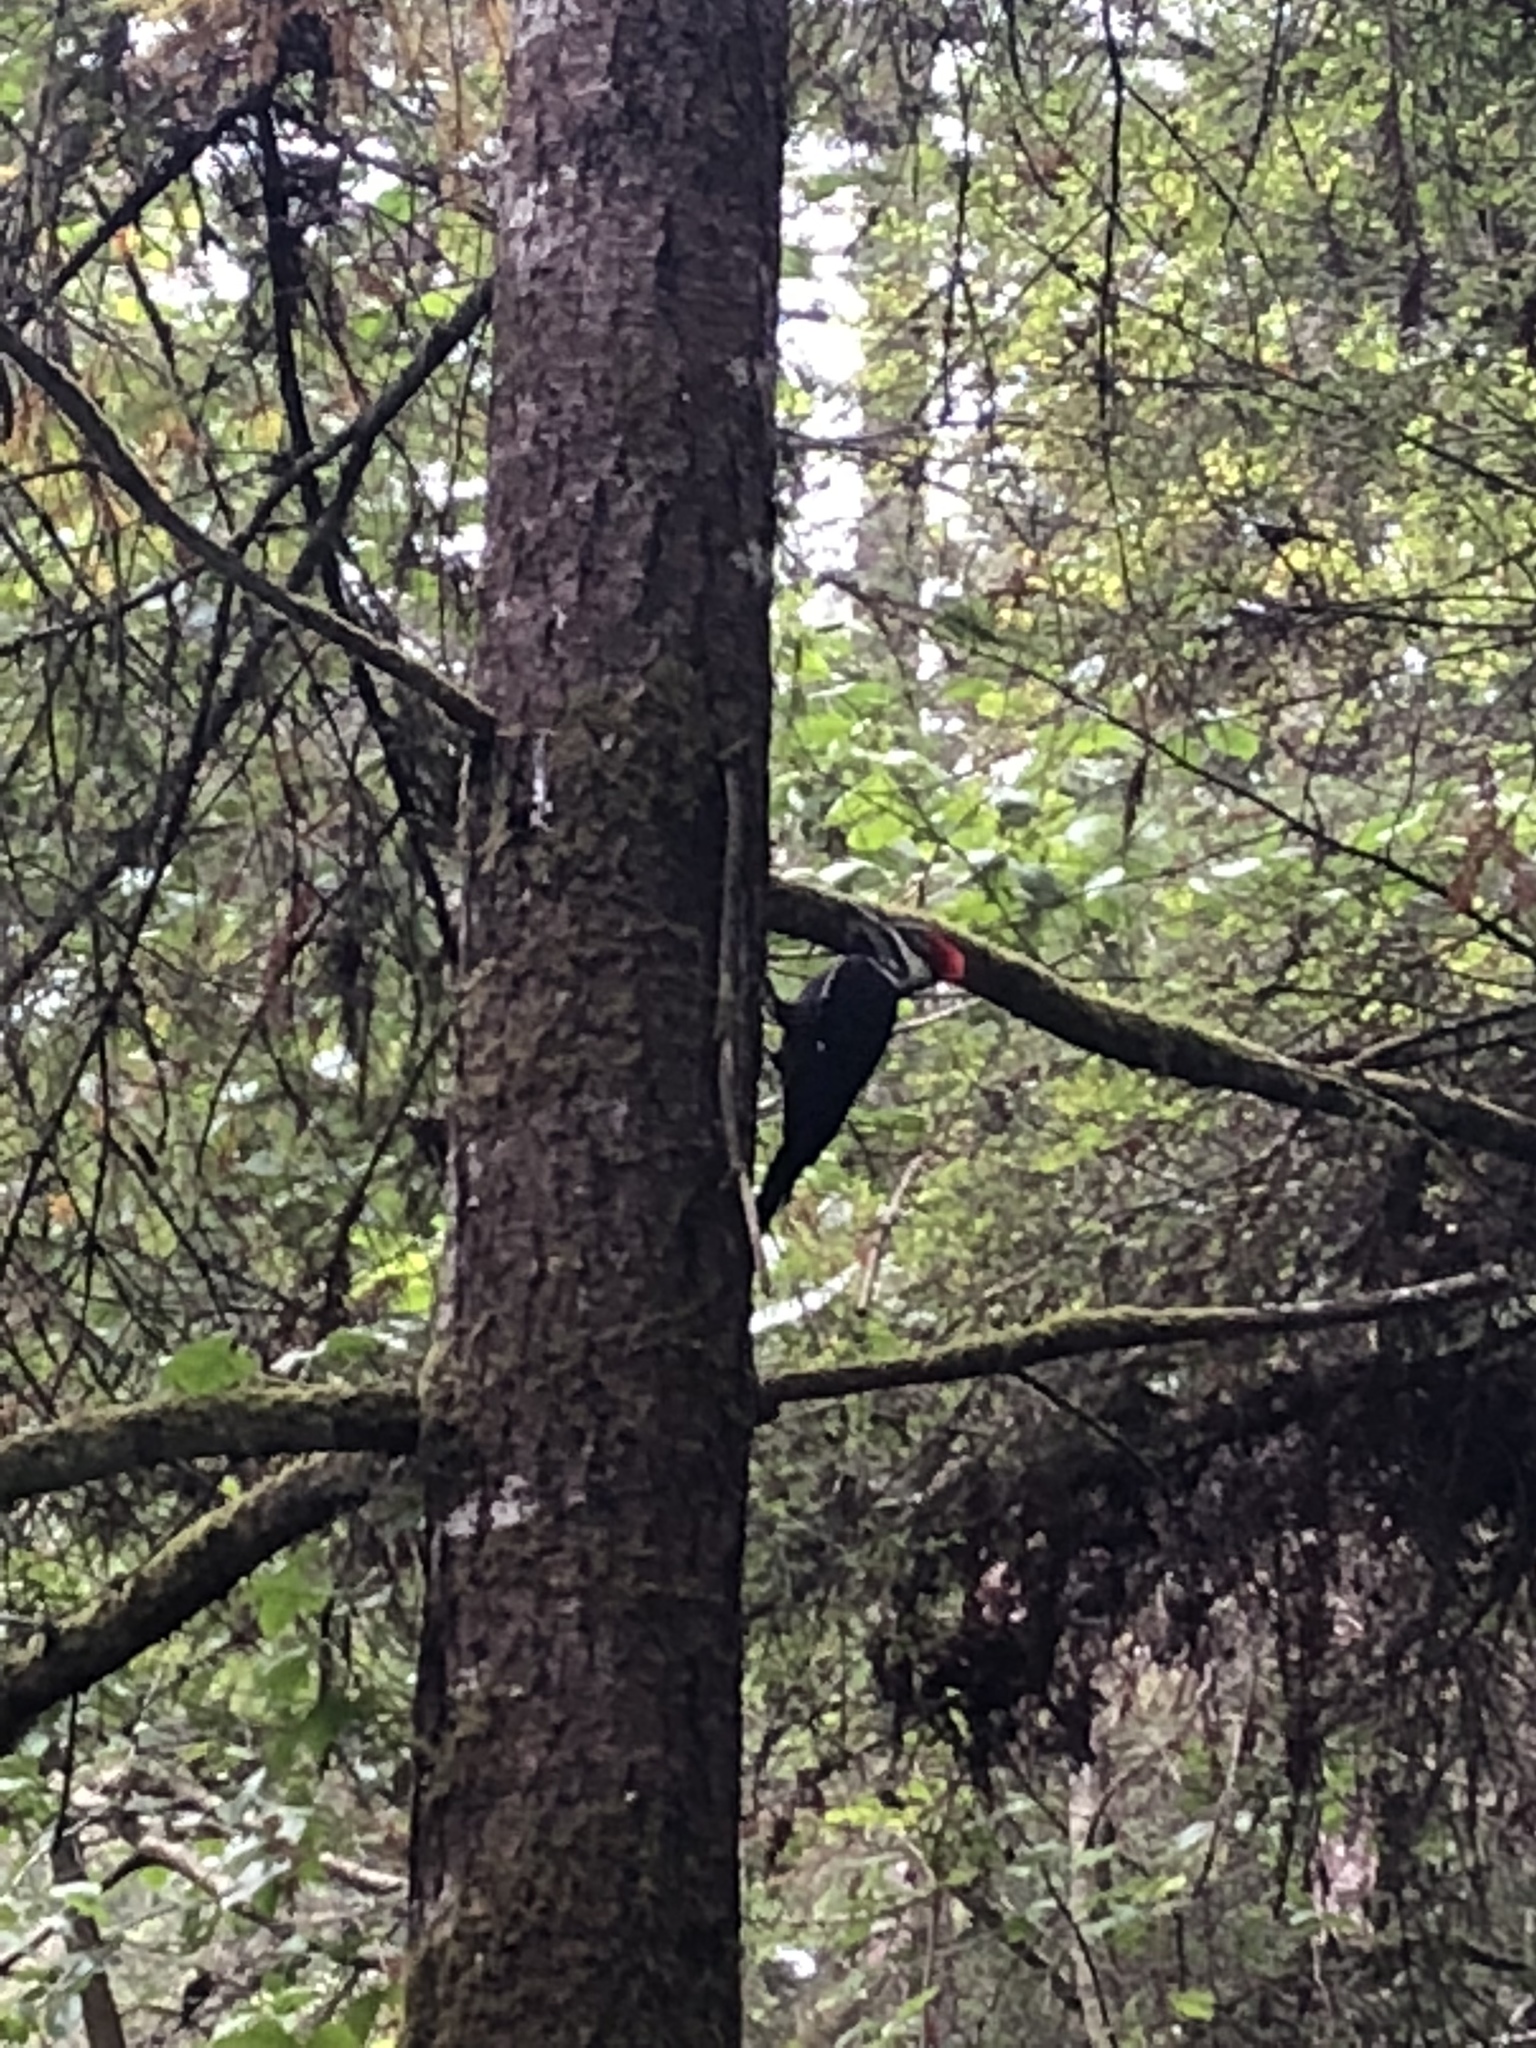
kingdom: Animalia
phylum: Chordata
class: Aves
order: Piciformes
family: Picidae
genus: Dryocopus
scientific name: Dryocopus pileatus
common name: Pileated woodpecker
